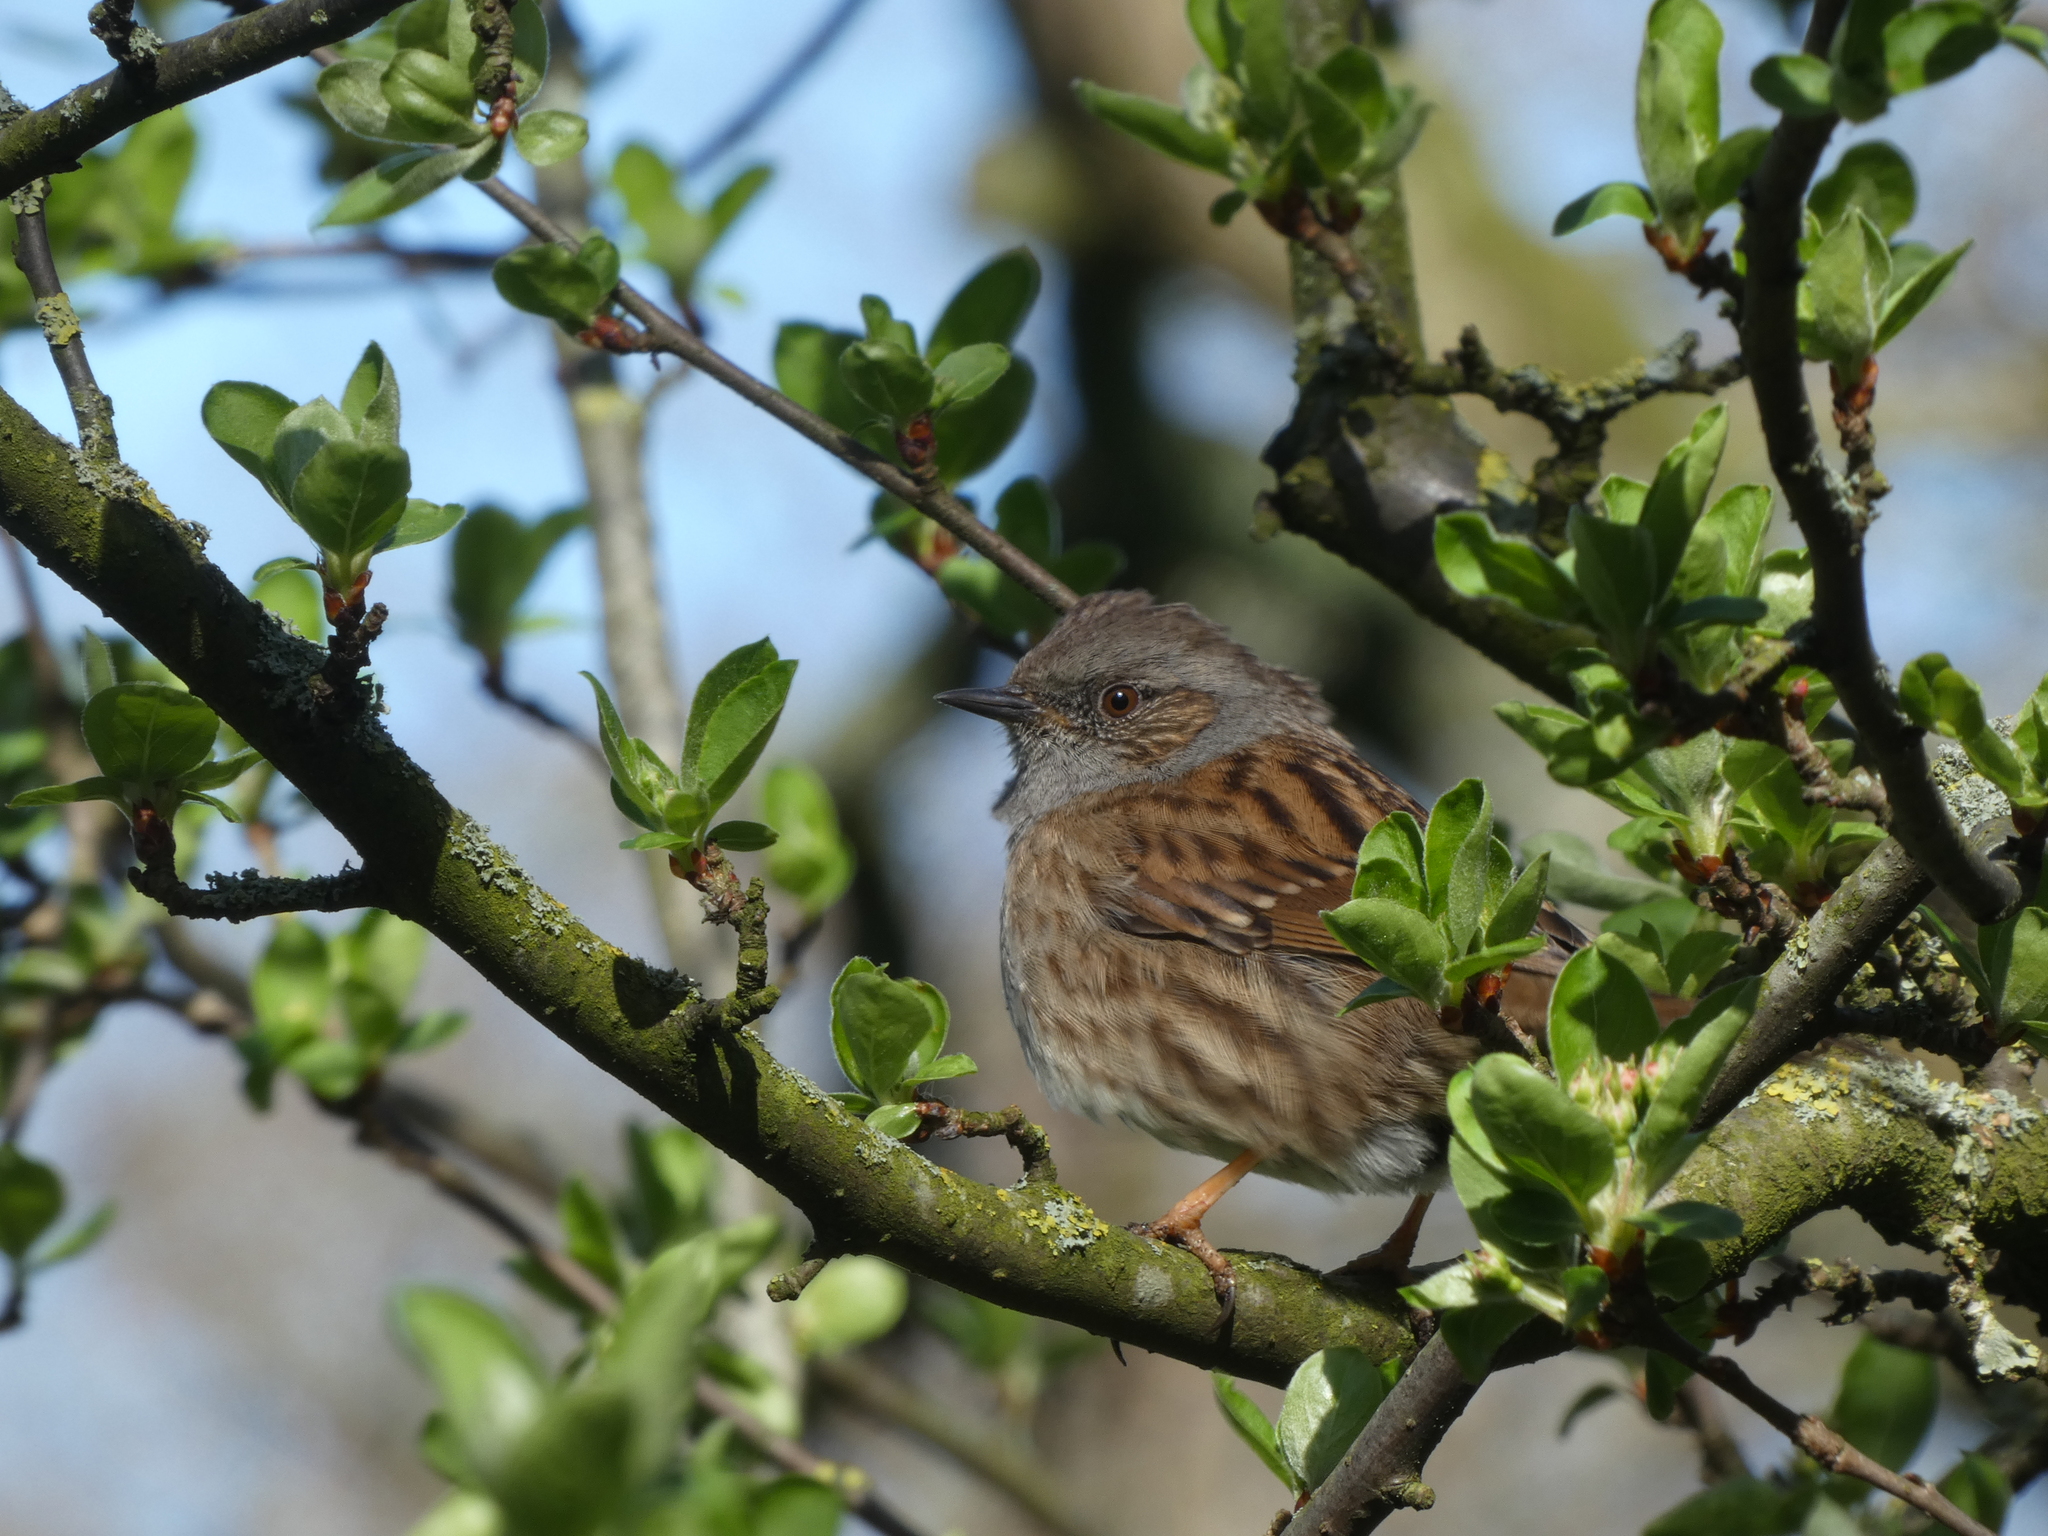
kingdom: Animalia
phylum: Chordata
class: Aves
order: Passeriformes
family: Prunellidae
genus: Prunella
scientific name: Prunella modularis
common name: Dunnock
